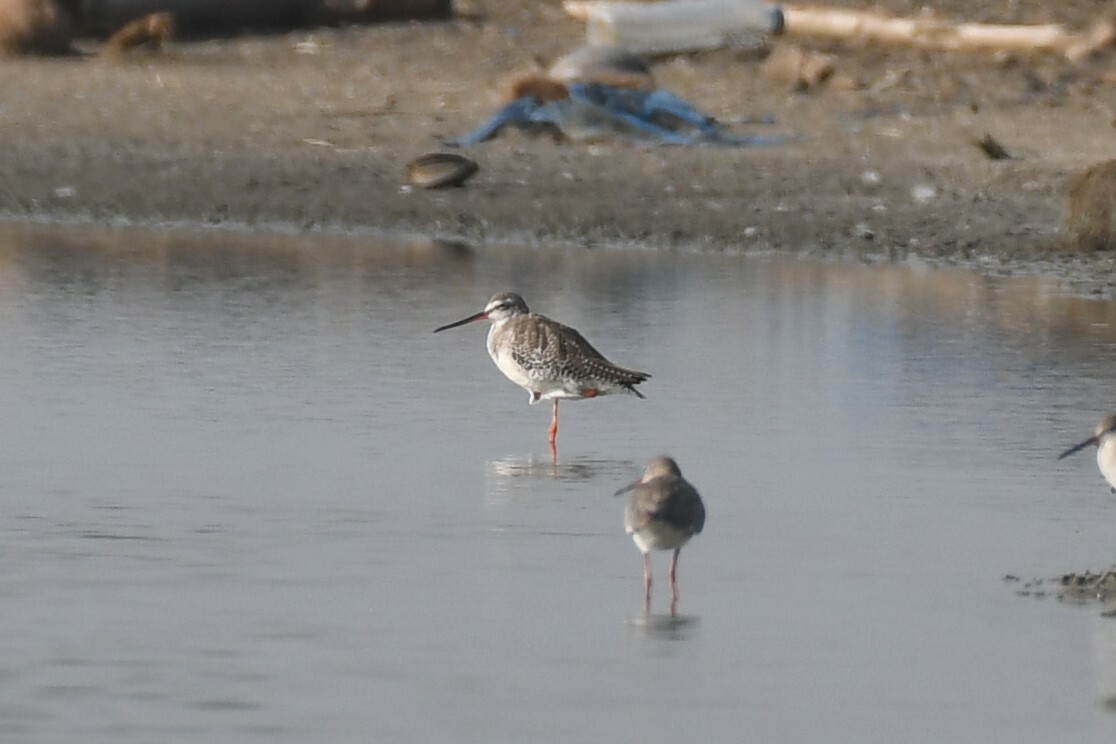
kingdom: Animalia
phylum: Chordata
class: Aves
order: Charadriiformes
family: Scolopacidae
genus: Tringa
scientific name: Tringa erythropus
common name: Spotted redshank
